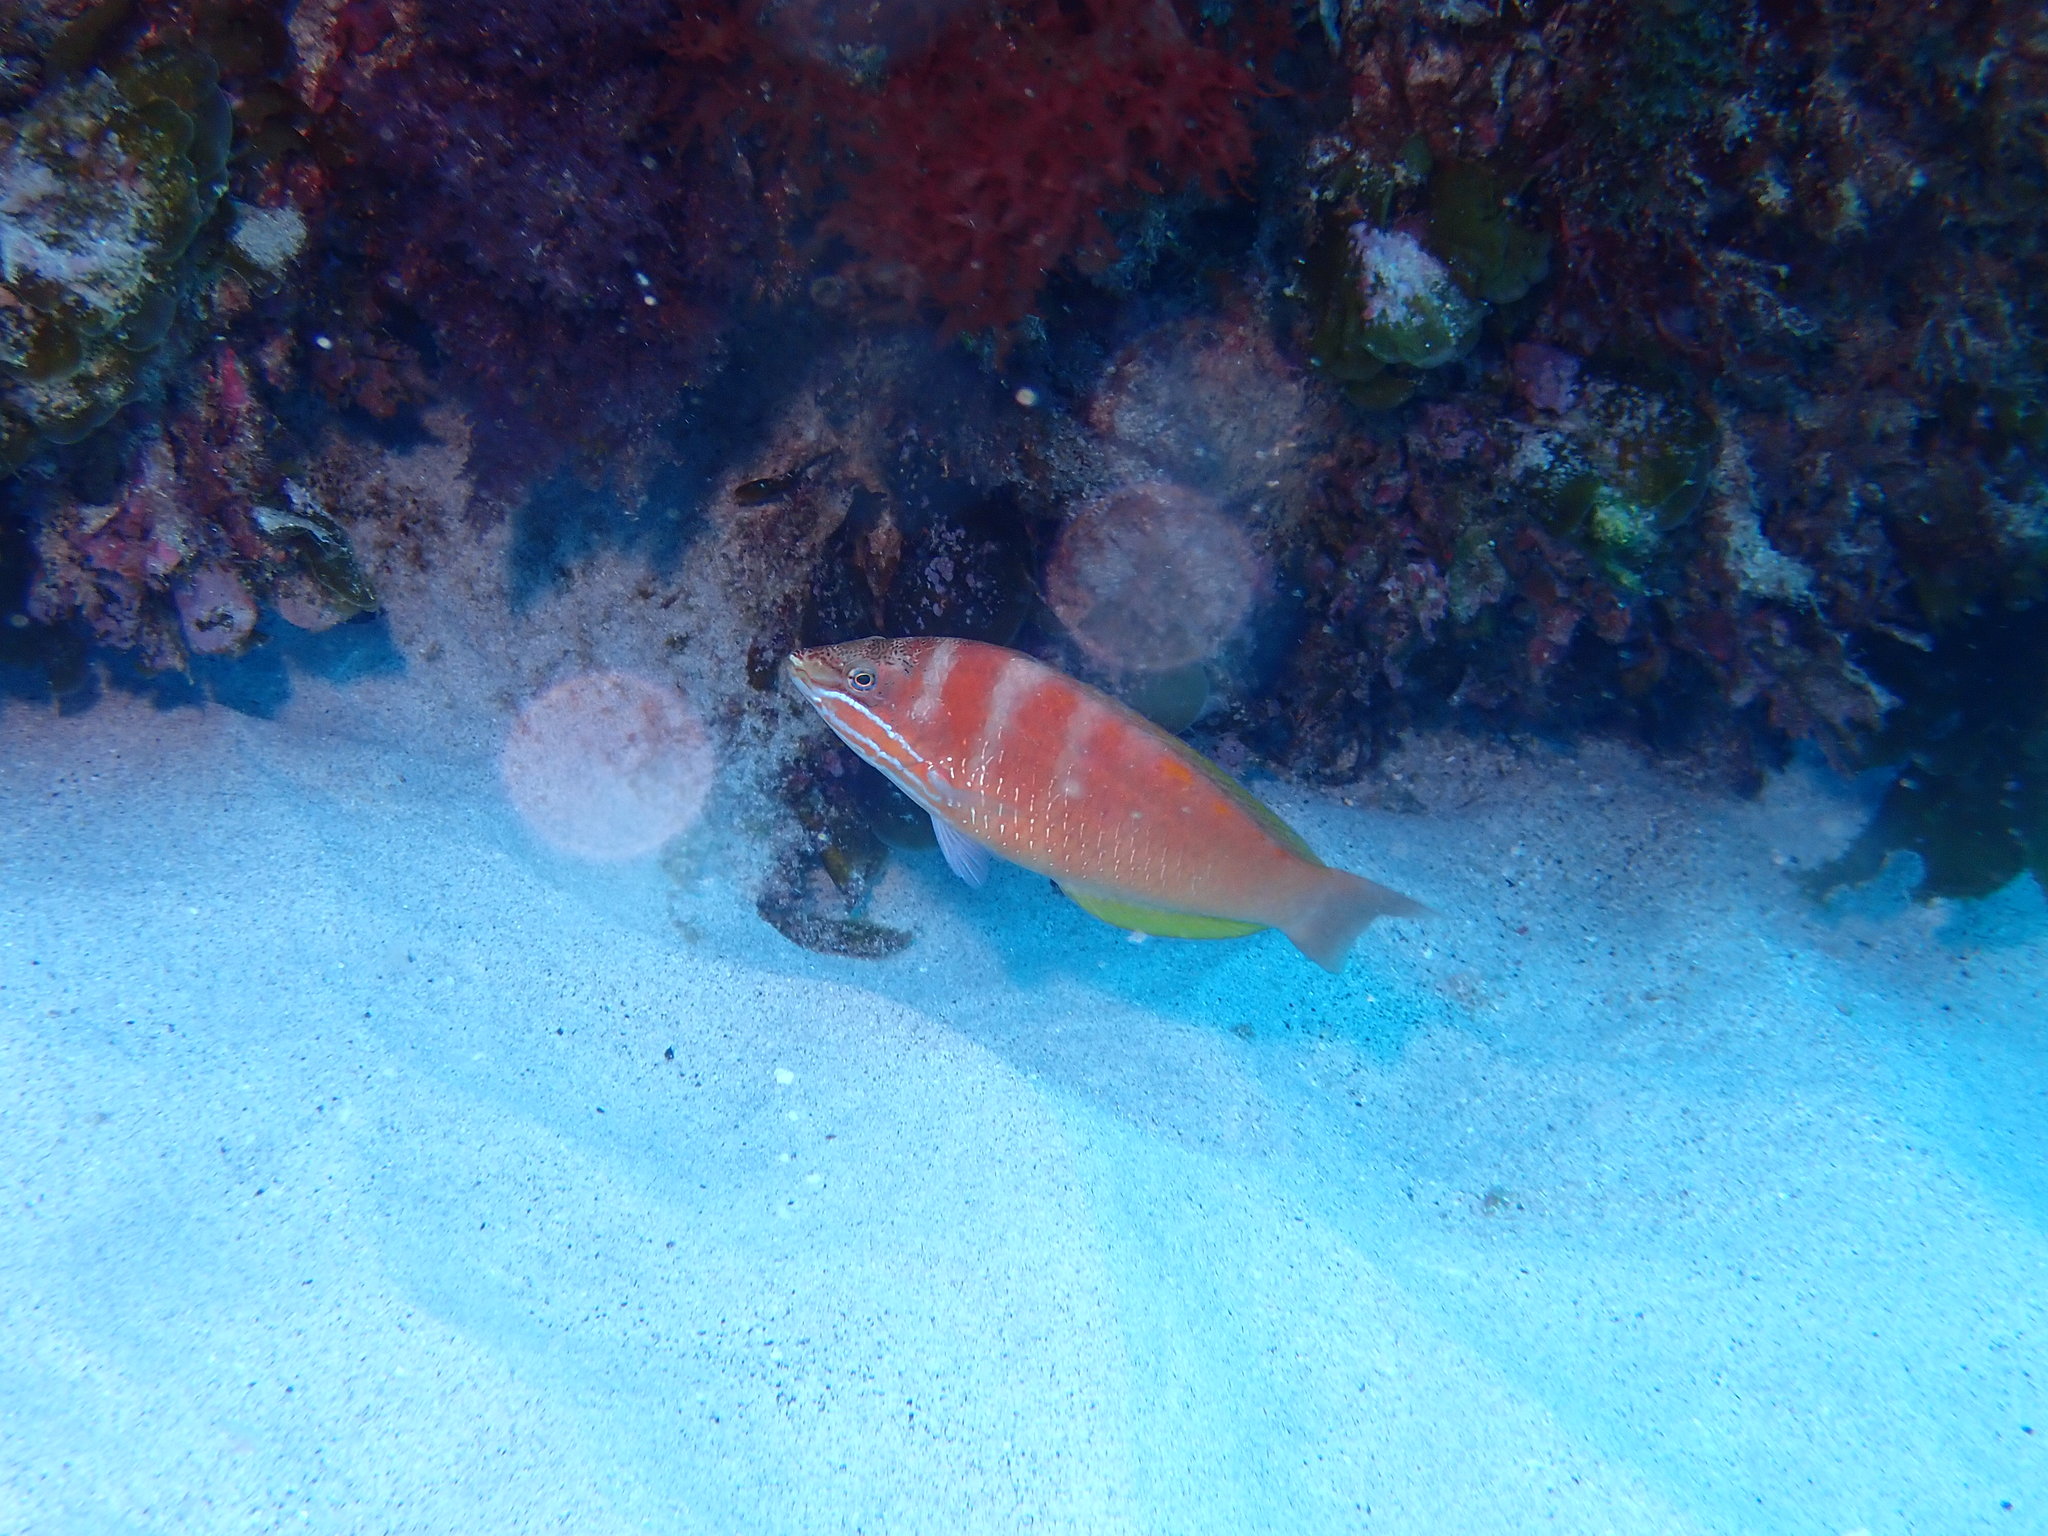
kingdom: Animalia
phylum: Chordata
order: Perciformes
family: Labridae
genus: Pseudolabrus
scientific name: Pseudolabrus luculentus
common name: Luculentus wrasse
